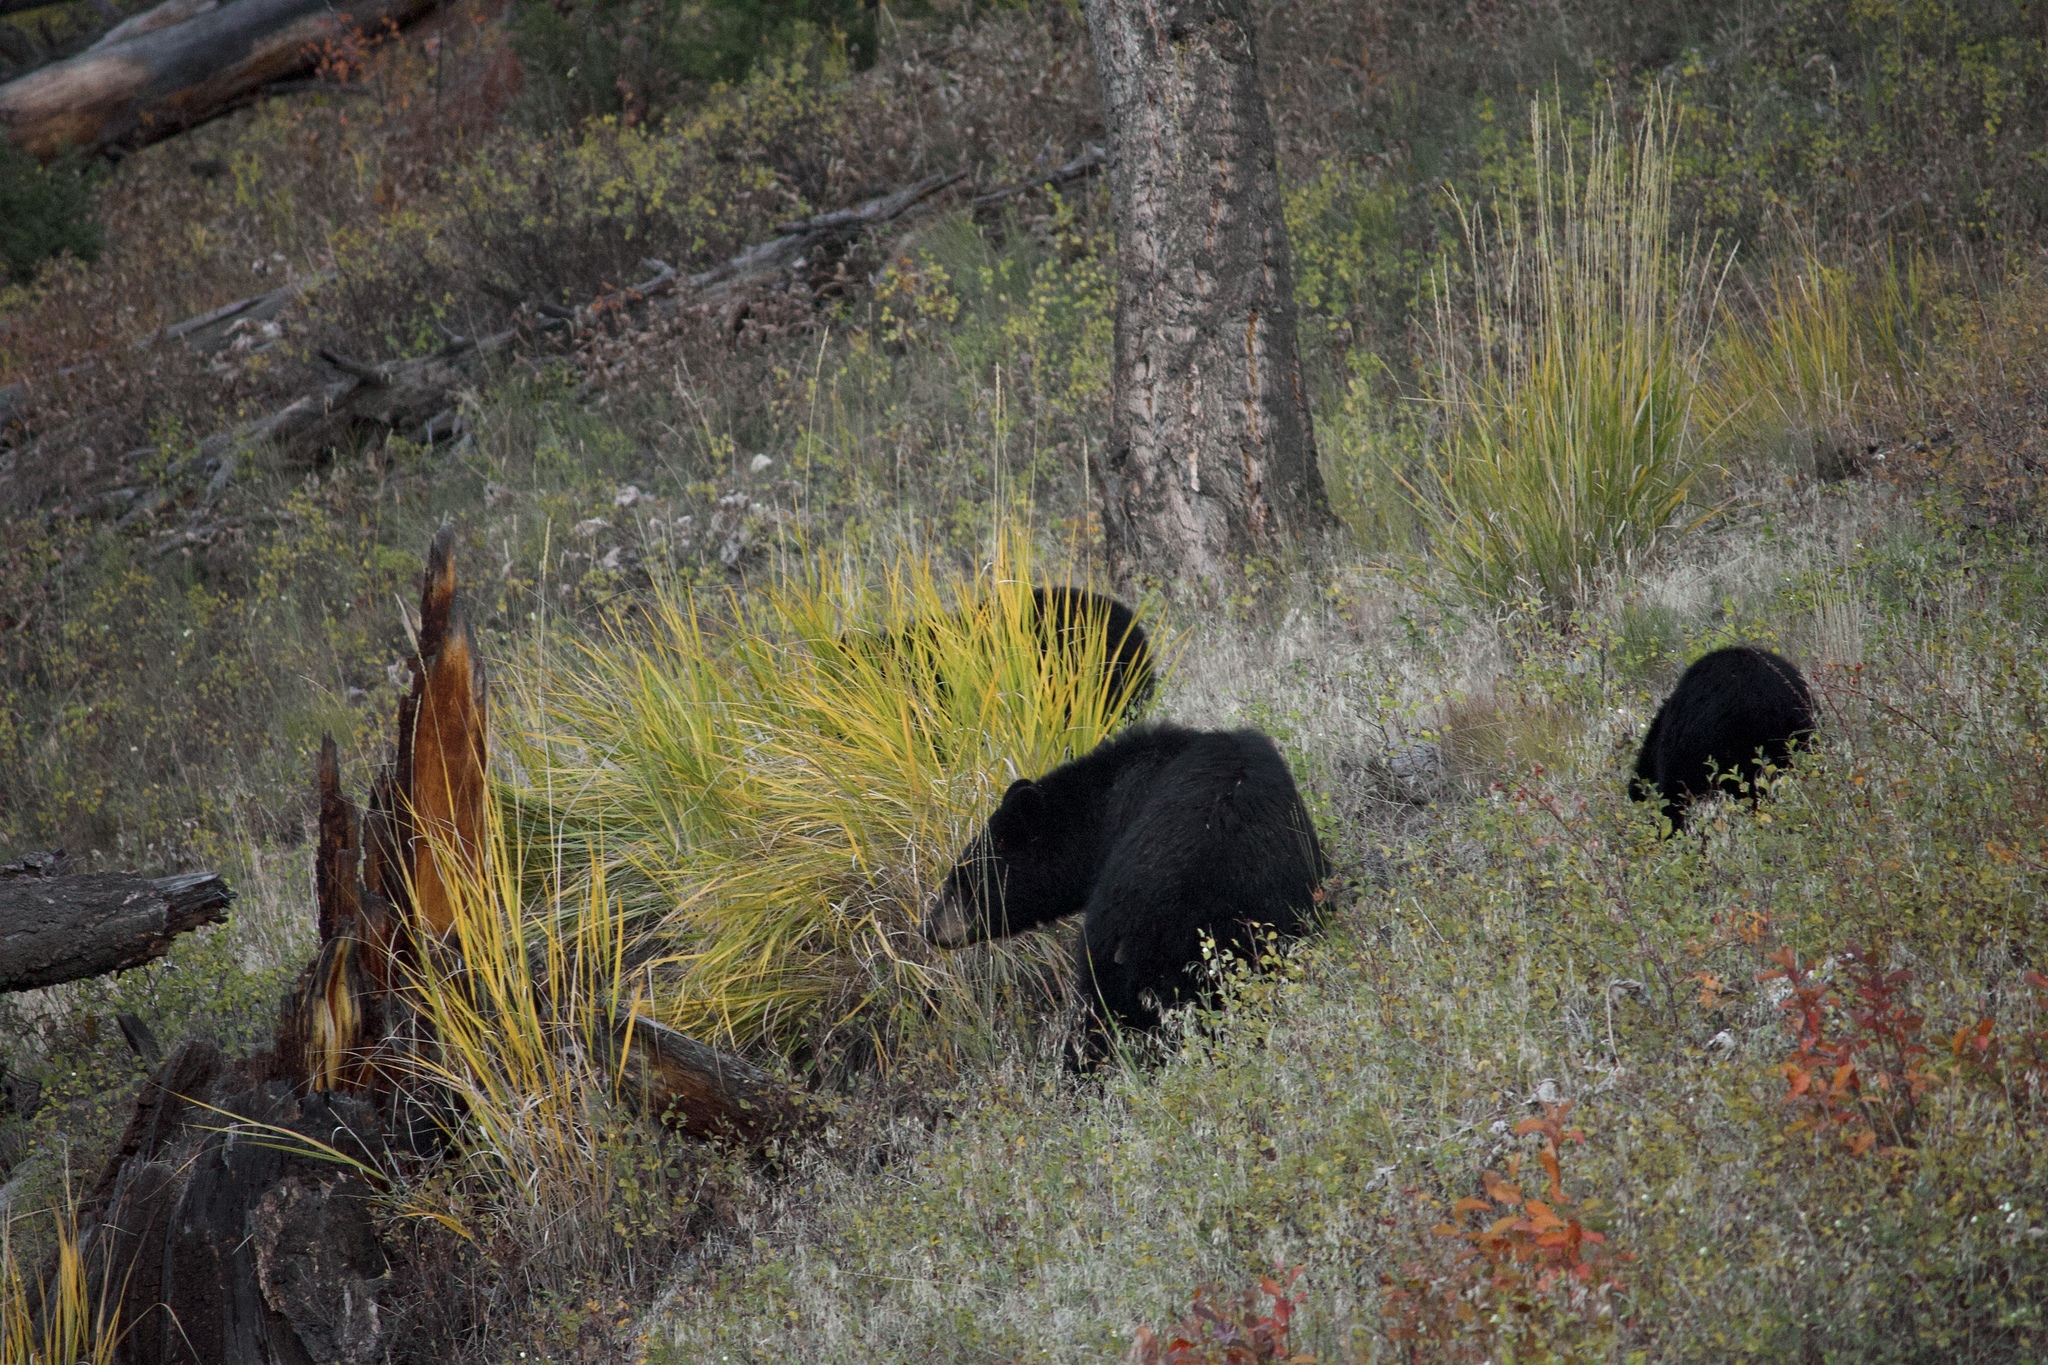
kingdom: Animalia
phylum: Chordata
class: Mammalia
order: Carnivora
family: Ursidae
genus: Ursus
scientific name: Ursus americanus
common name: American black bear
